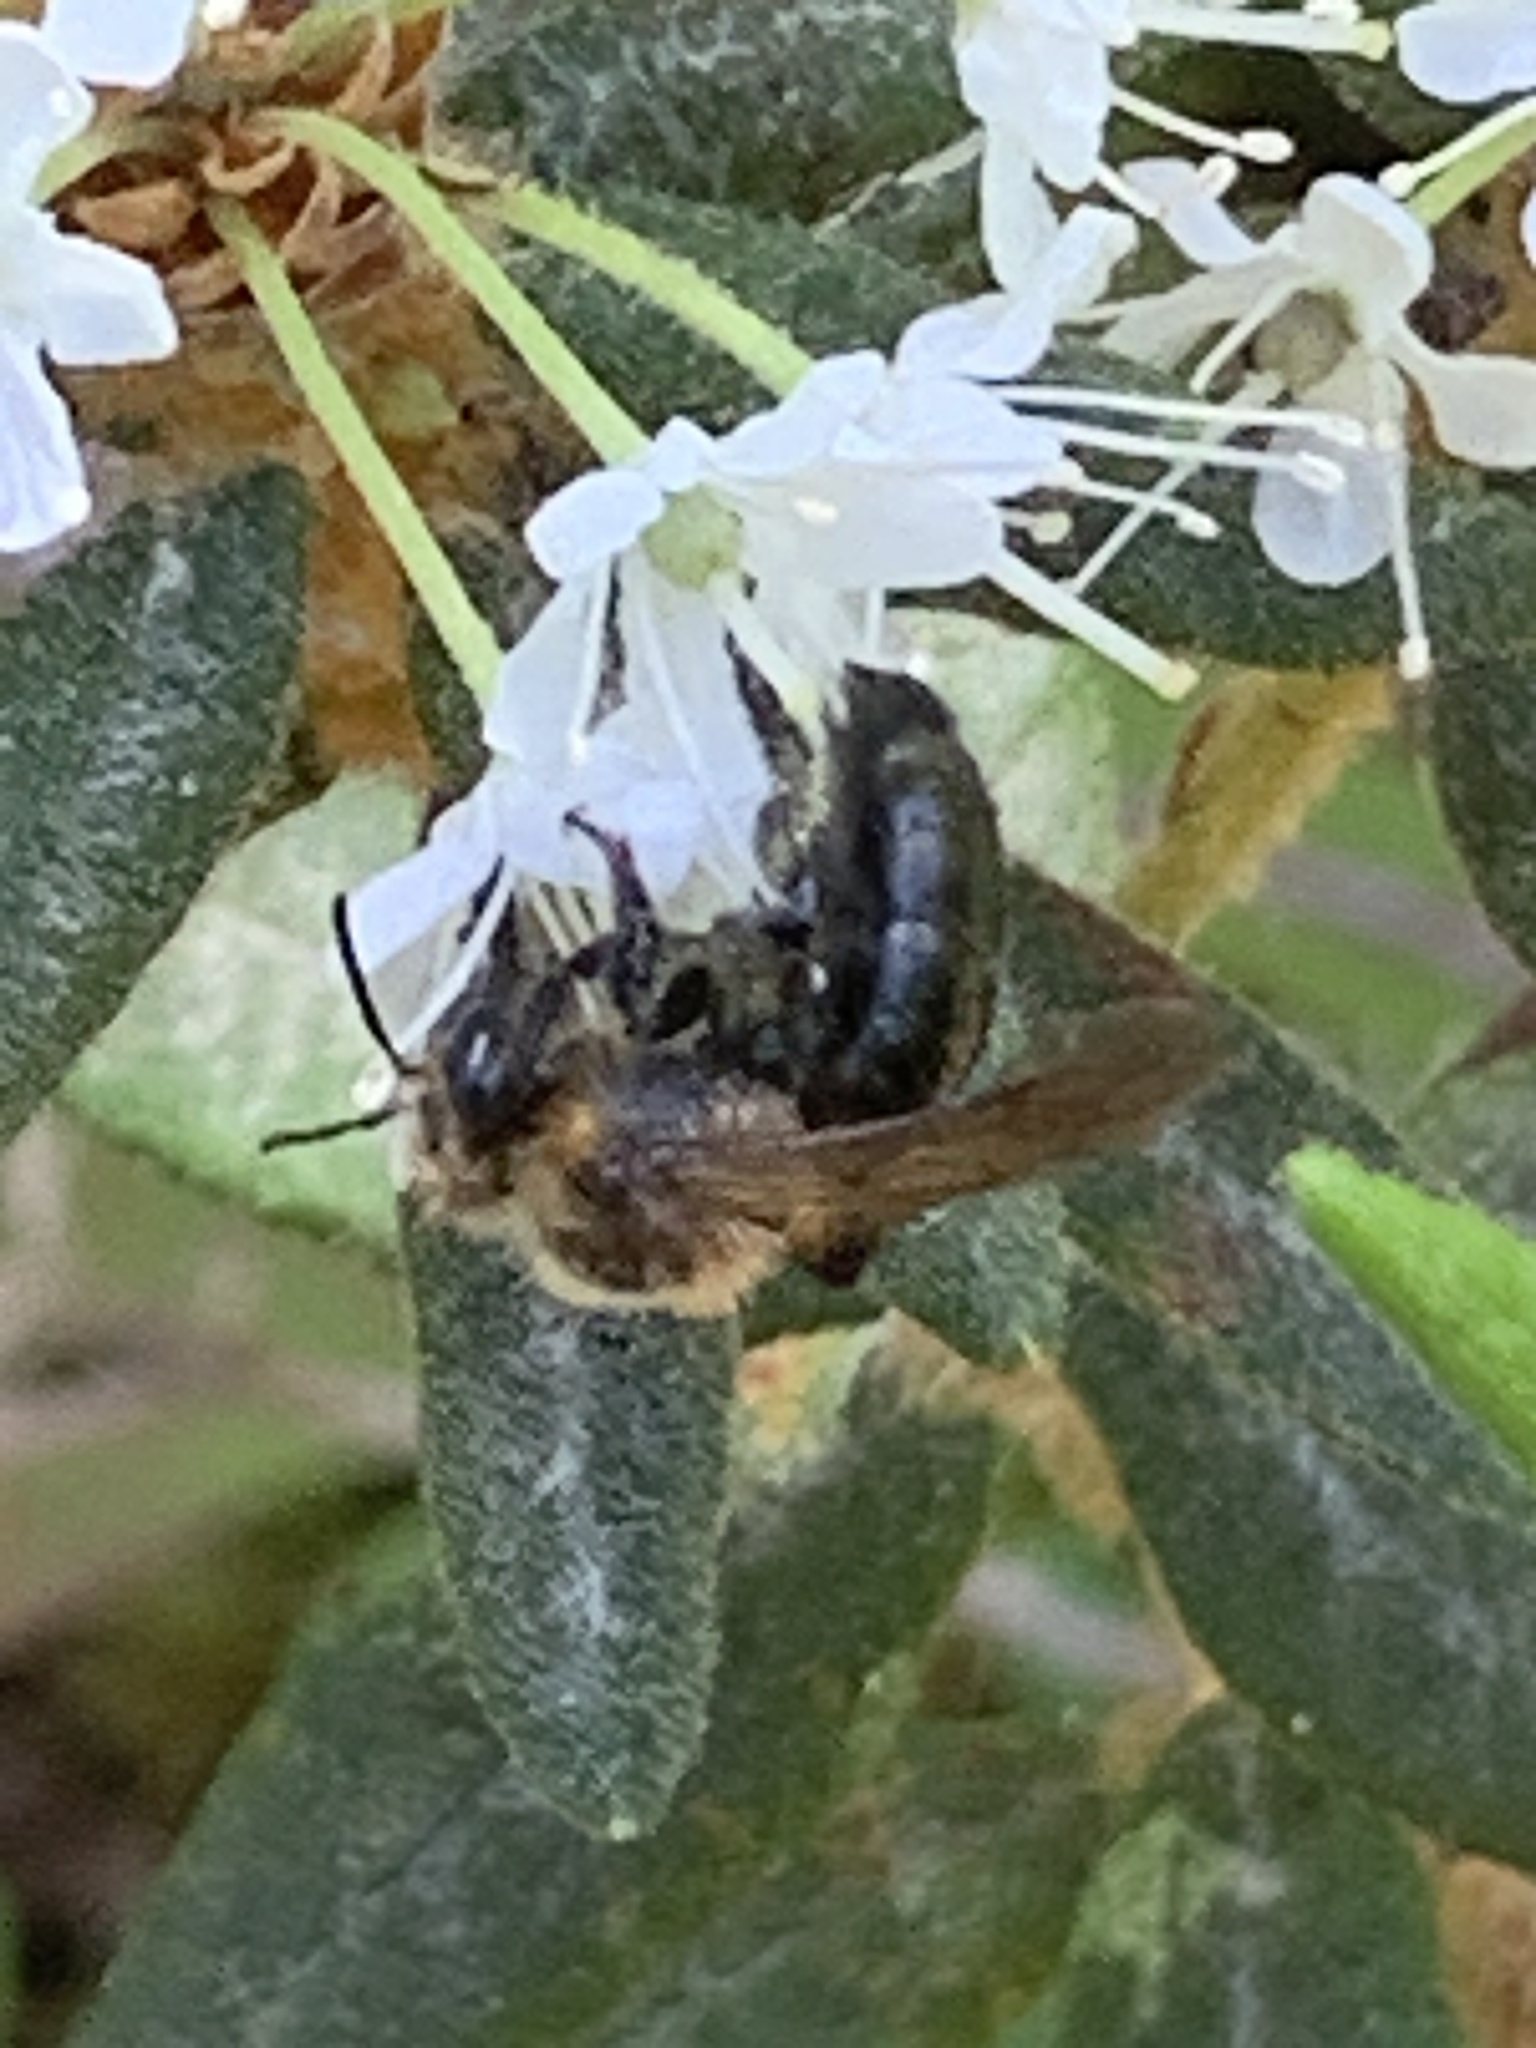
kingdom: Animalia
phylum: Arthropoda
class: Insecta
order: Hymenoptera
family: Andrenidae
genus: Andrena
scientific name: Andrena vicina
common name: Neighborly mining bee
